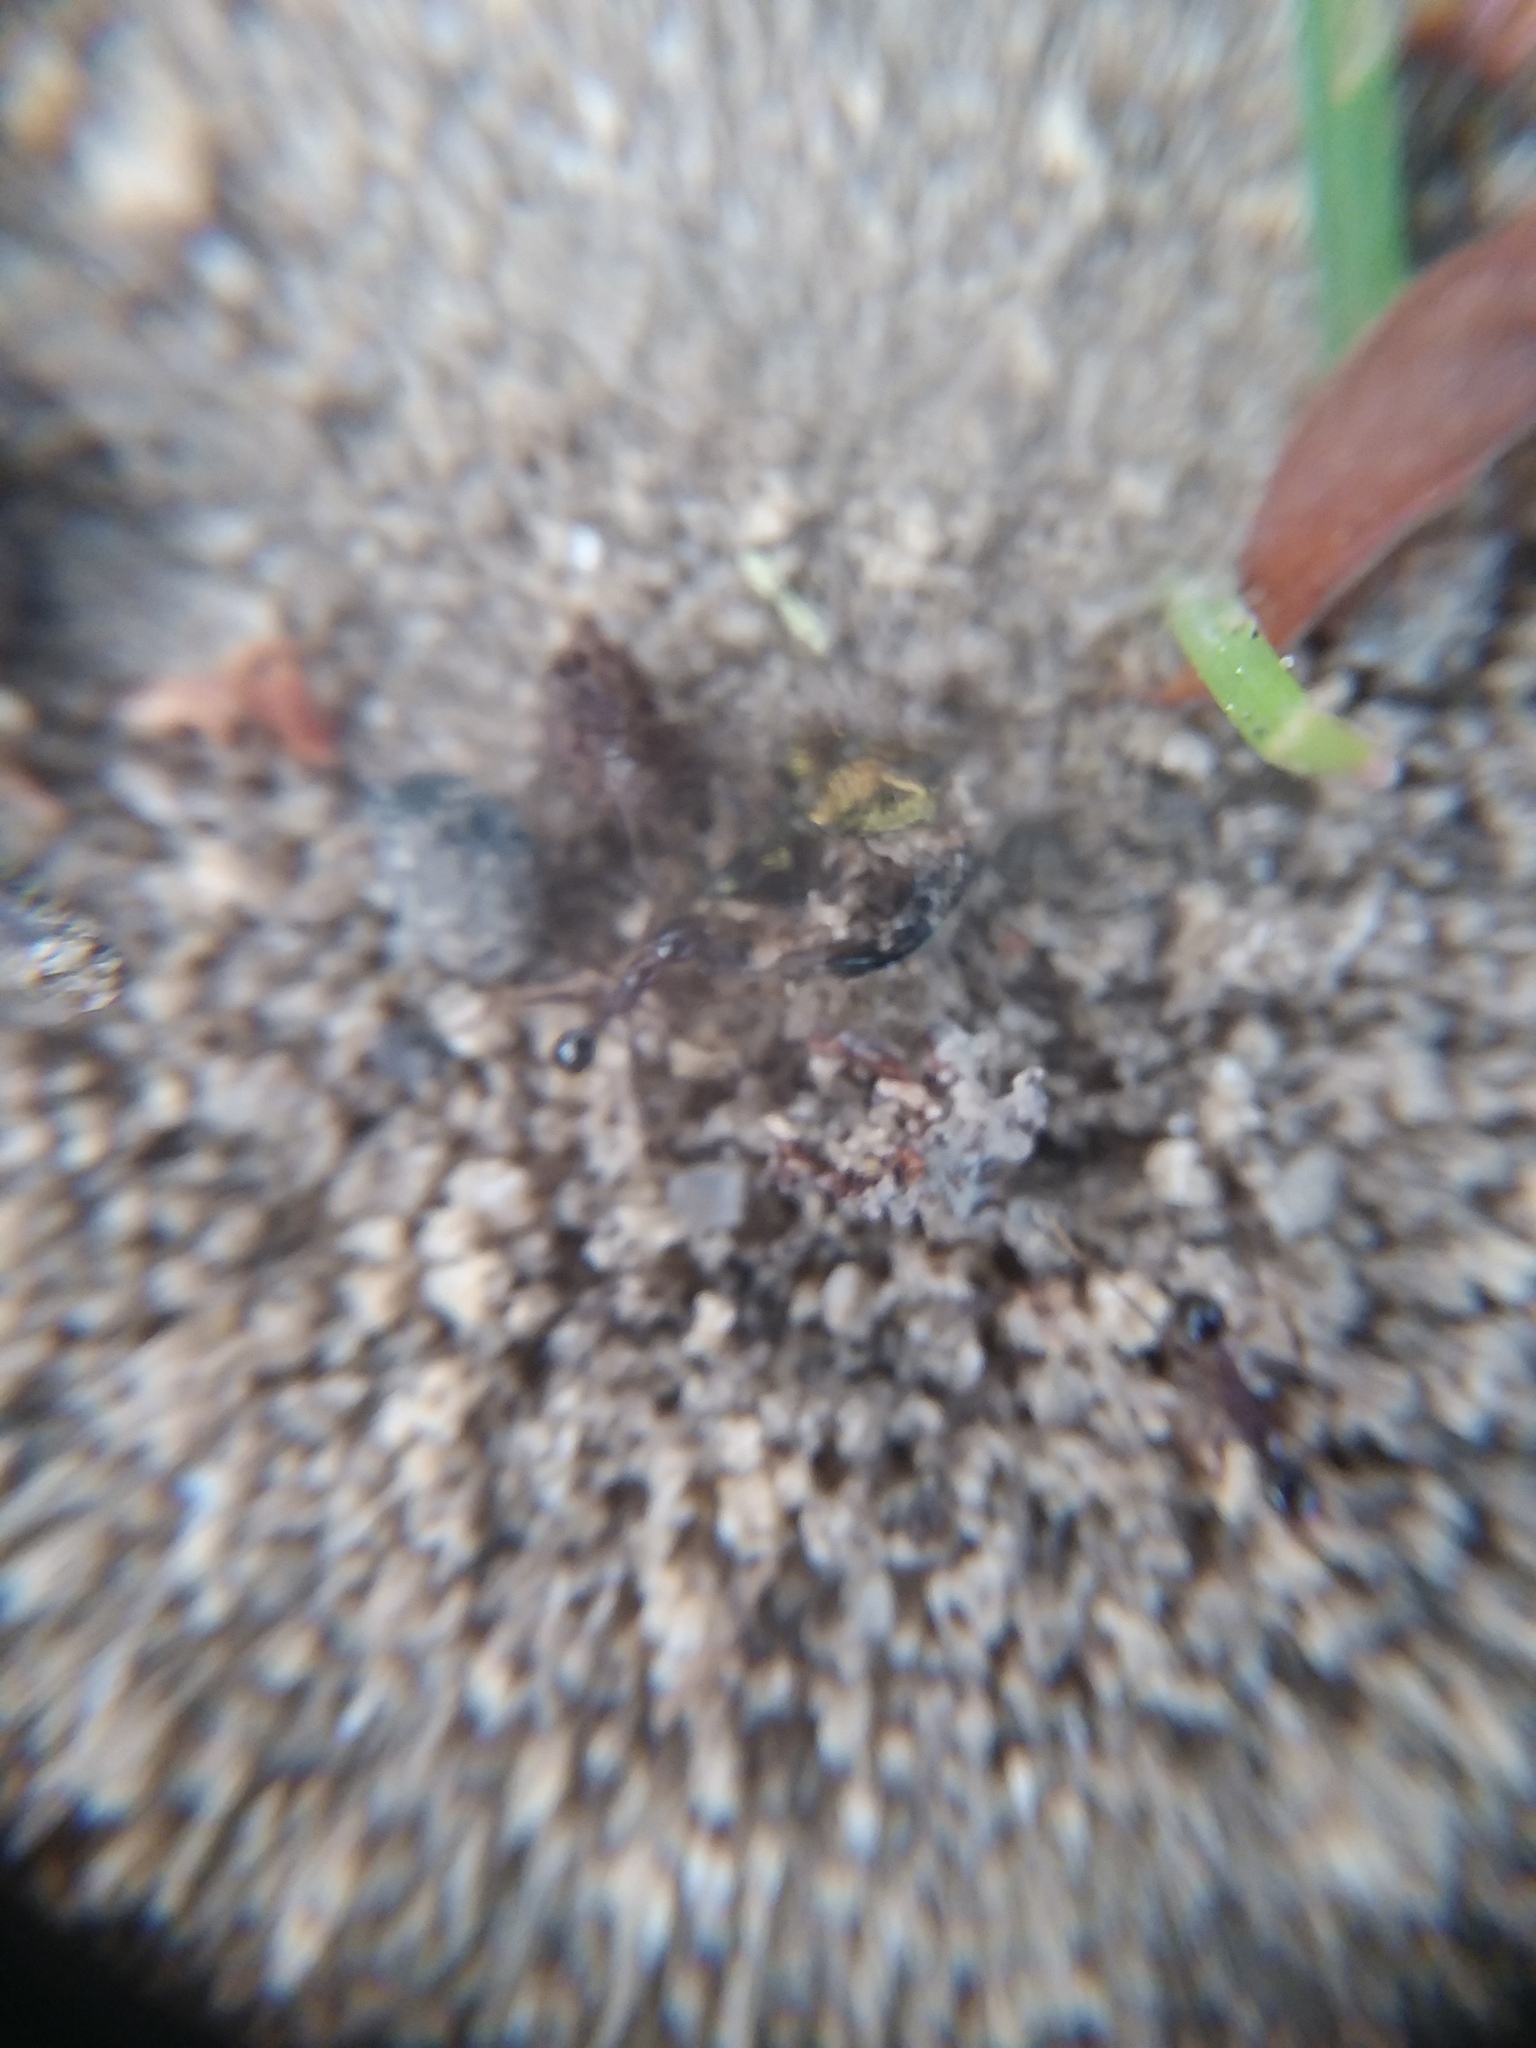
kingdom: Animalia
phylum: Arthropoda
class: Insecta
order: Hymenoptera
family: Formicidae
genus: Pheidole
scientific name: Pheidole obscurithorax
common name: Obscure big-headed ant
